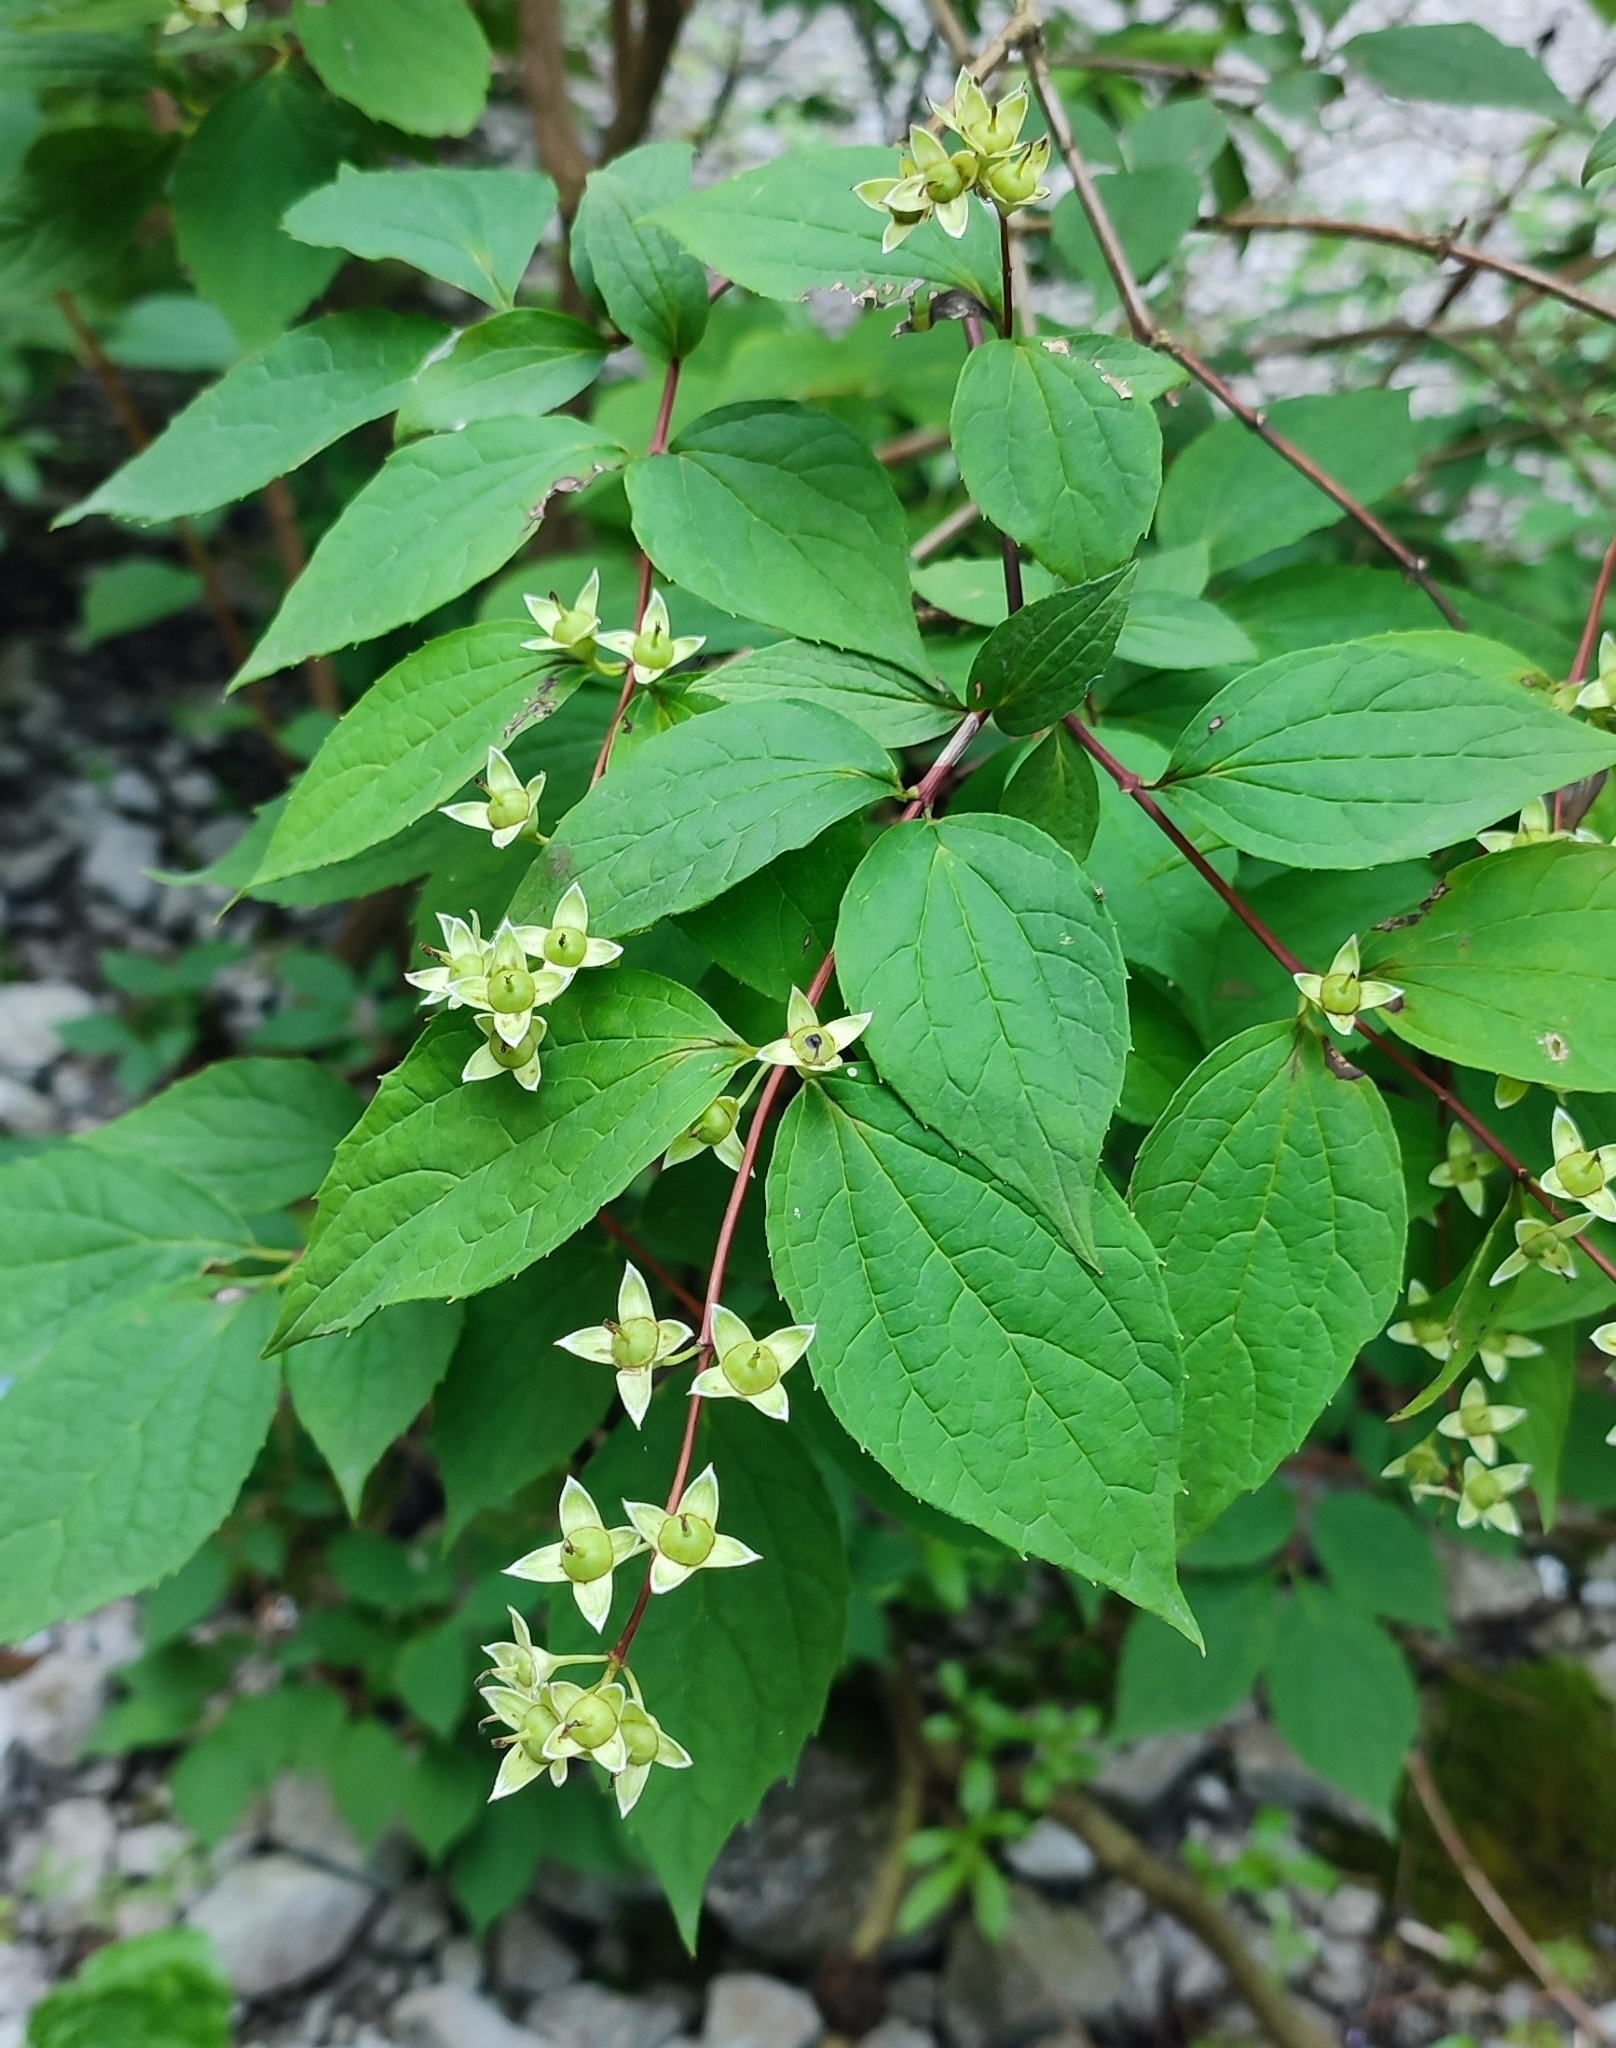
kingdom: Plantae
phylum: Tracheophyta
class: Magnoliopsida
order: Cornales
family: Hydrangeaceae
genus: Philadelphus
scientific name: Philadelphus coronarius
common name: Mock orange
